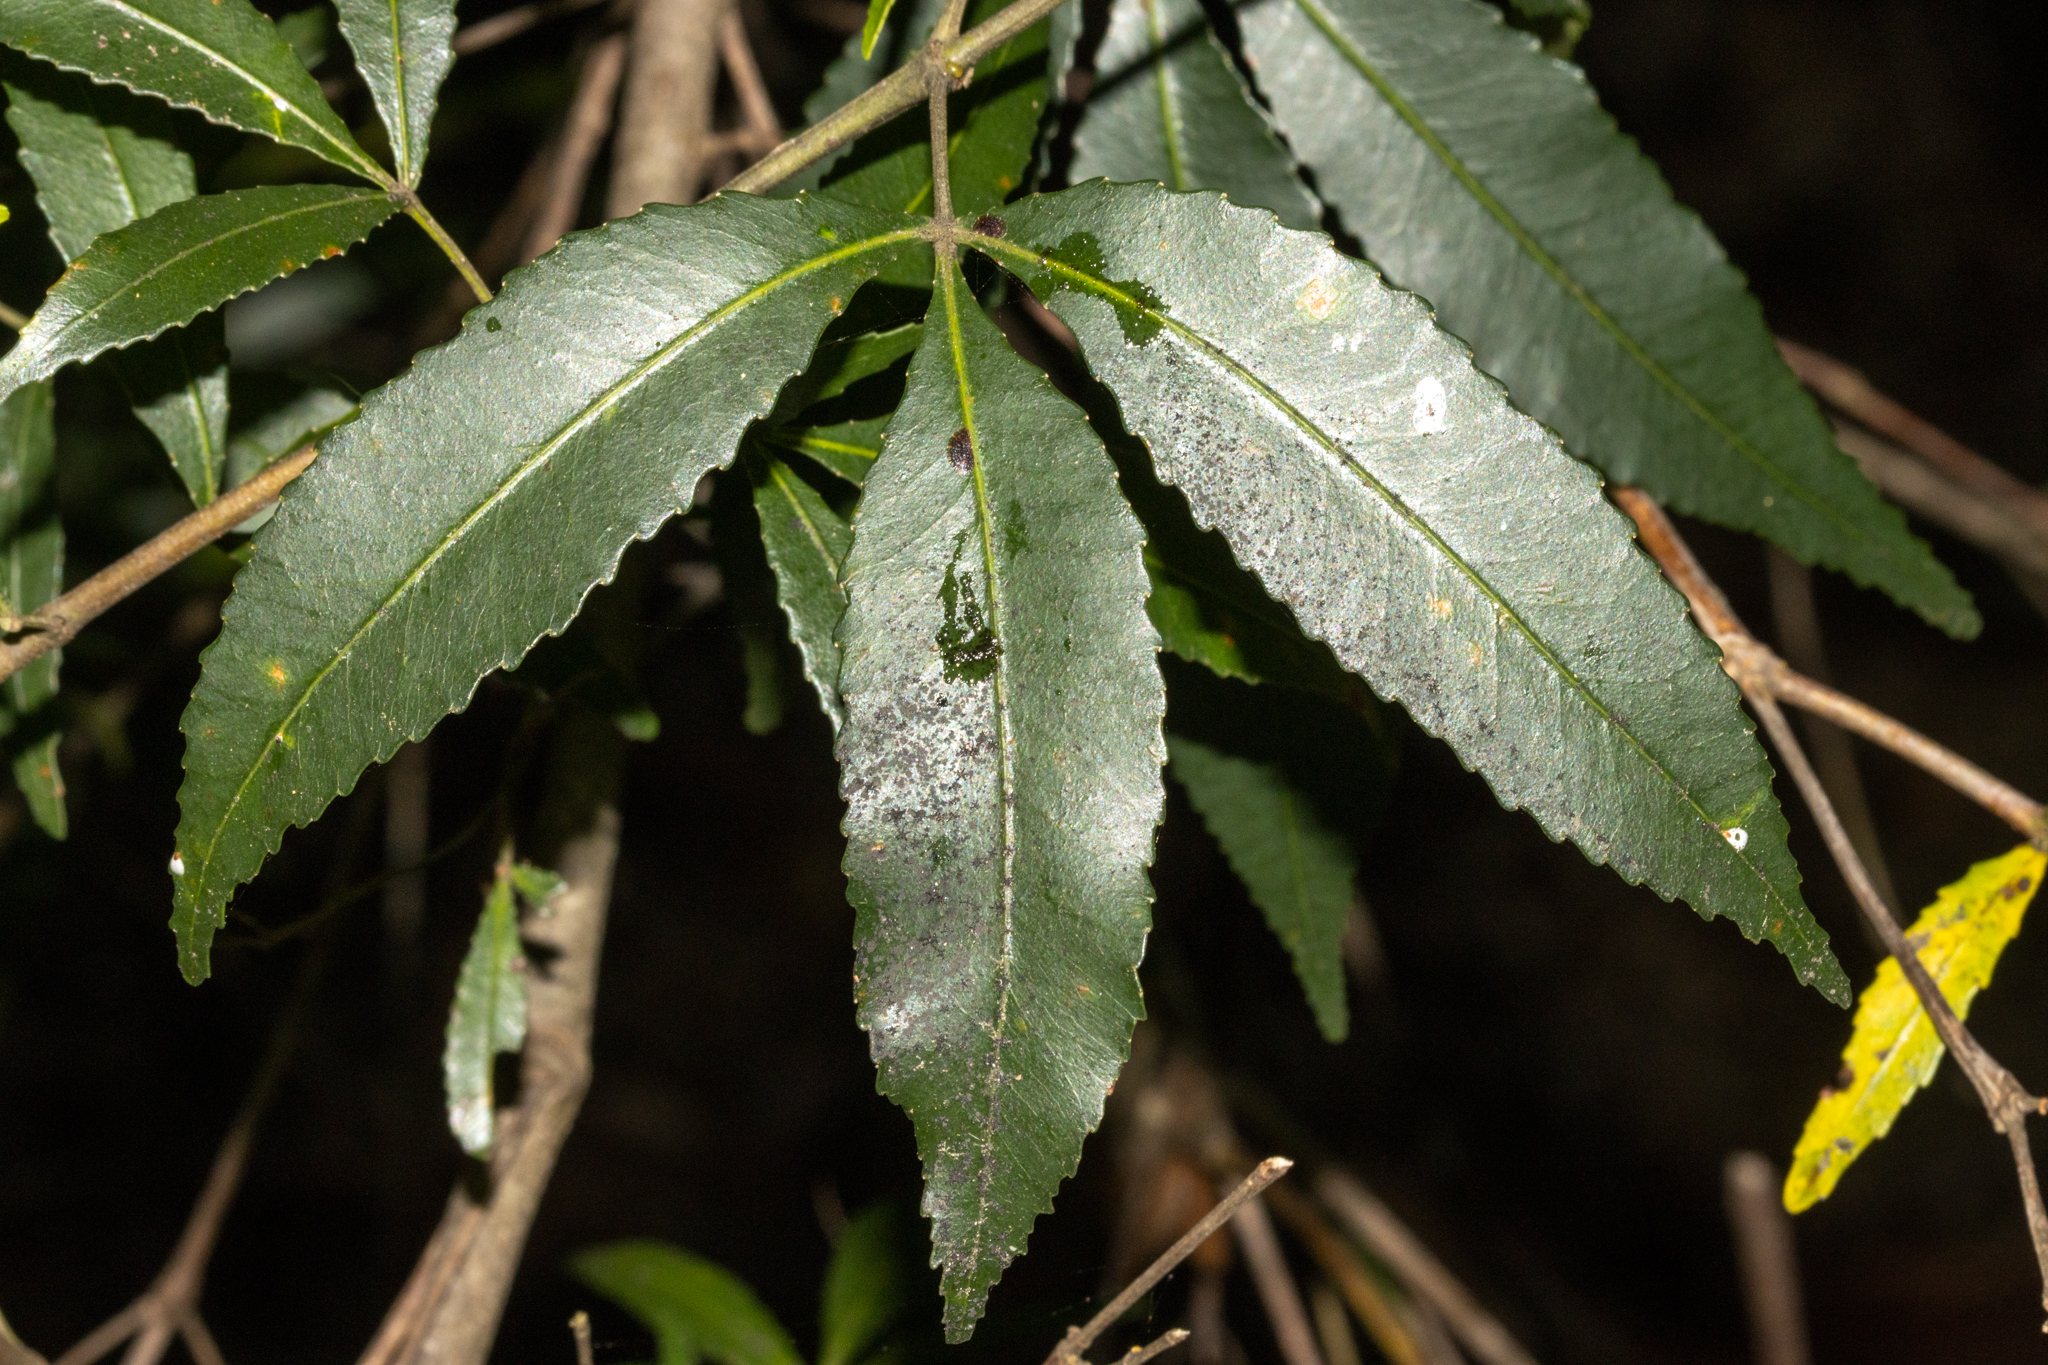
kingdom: Plantae
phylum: Tracheophyta
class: Magnoliopsida
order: Oxalidales
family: Cunoniaceae
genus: Ceratopetalum
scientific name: Ceratopetalum gummiferum
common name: Christmasbush
